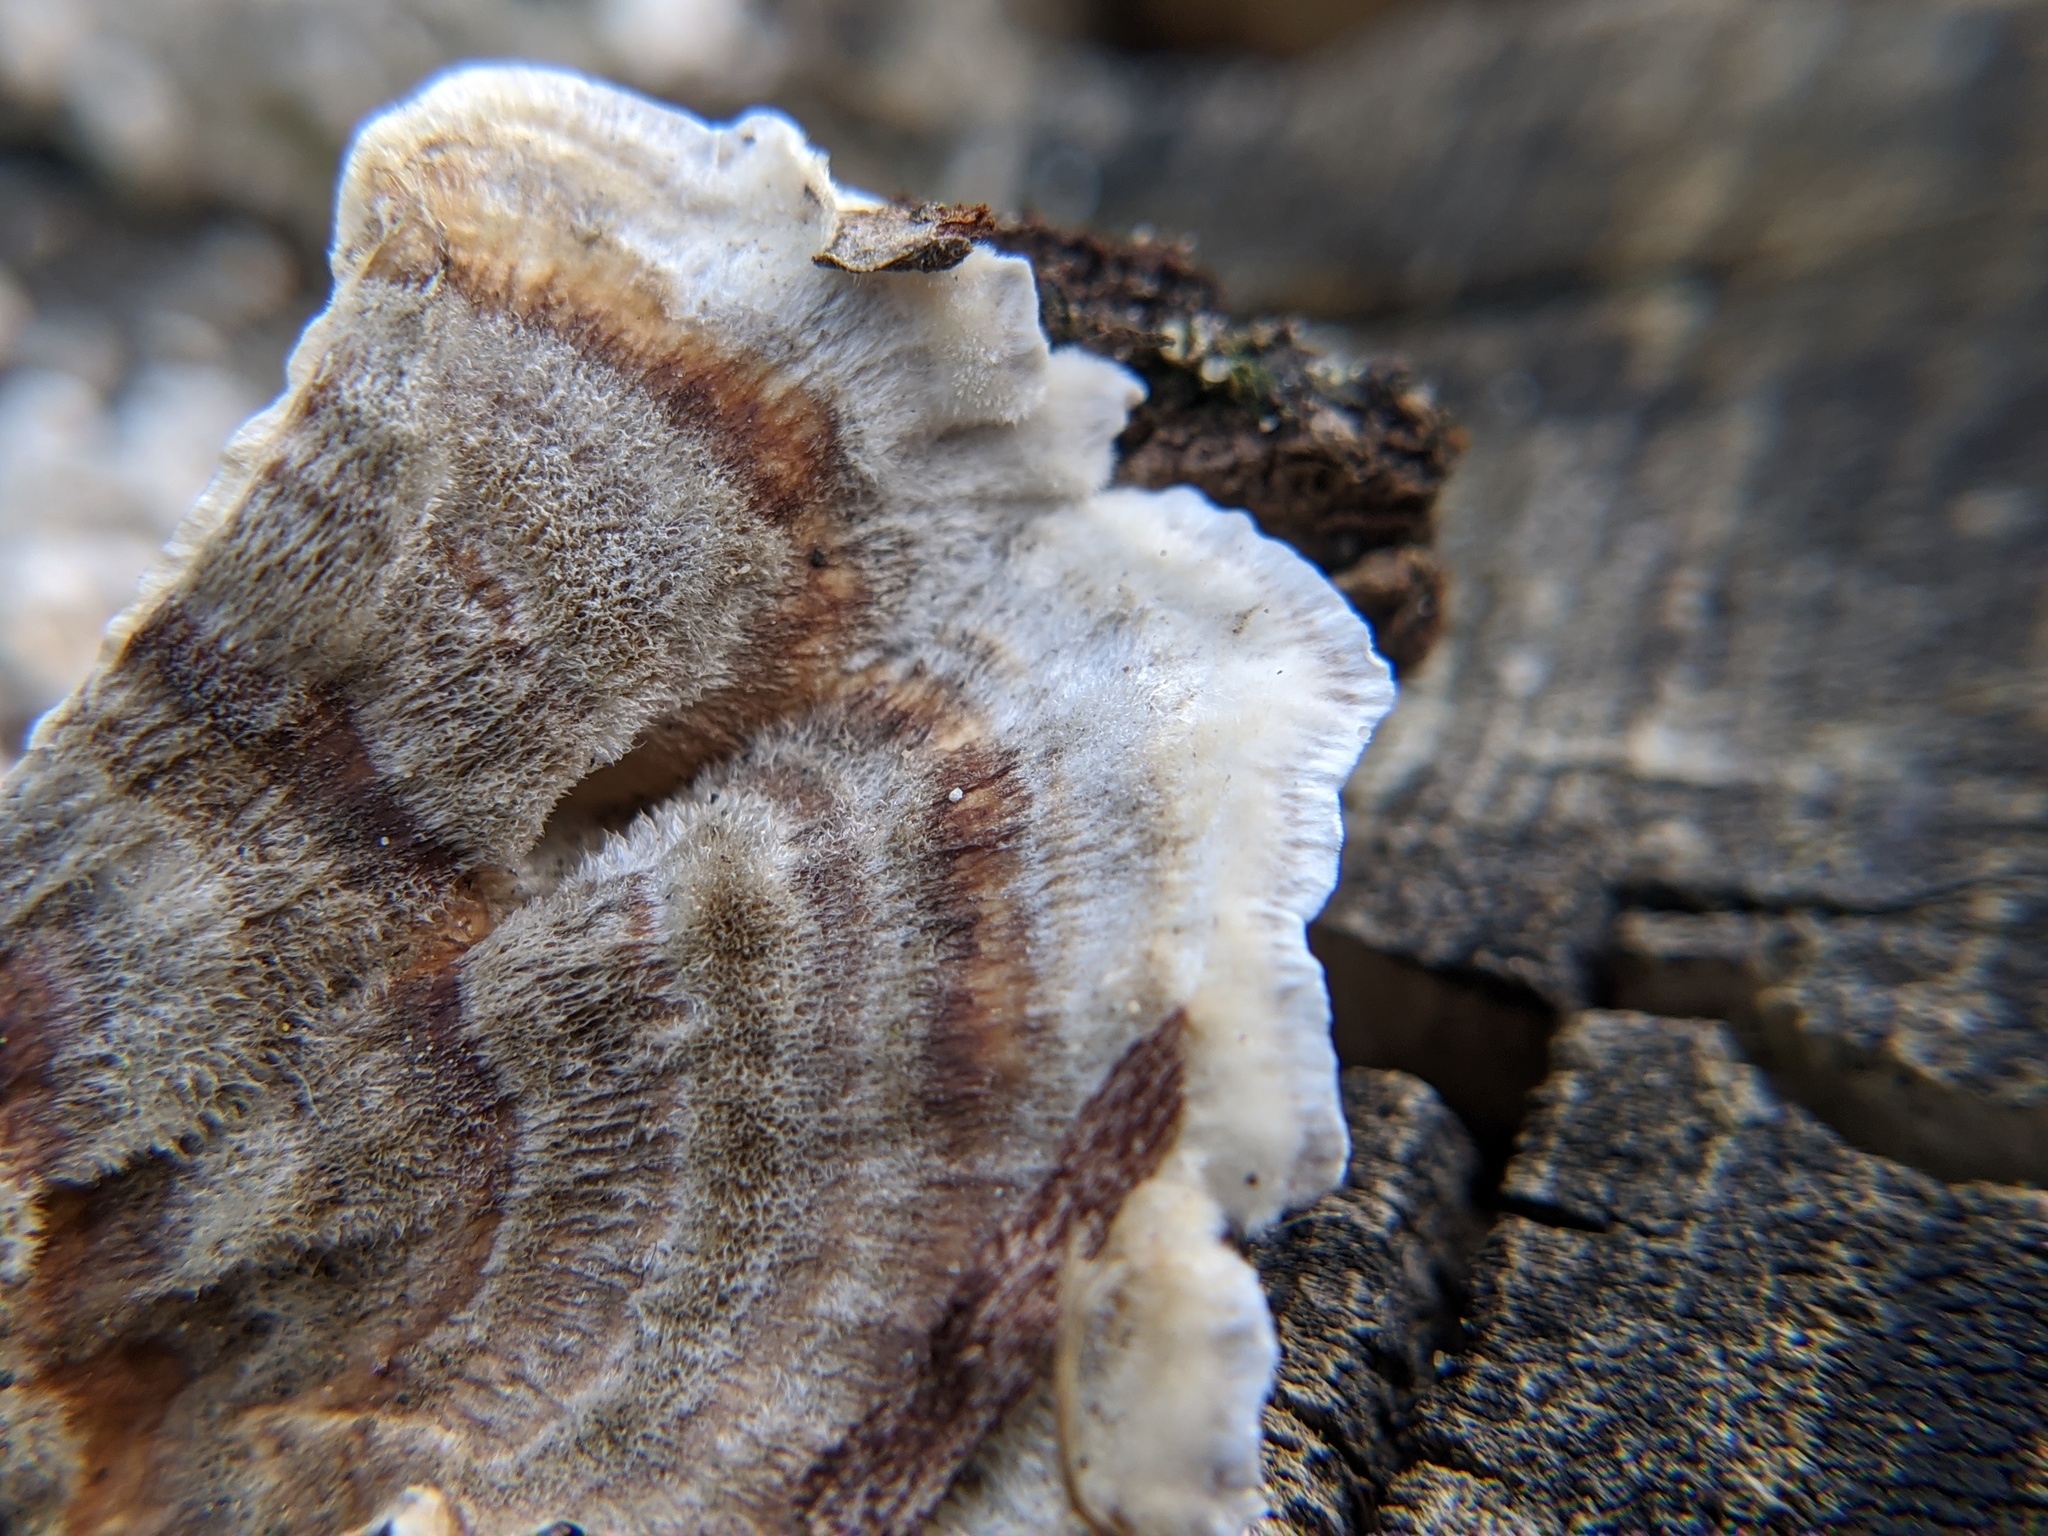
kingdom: Fungi
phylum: Basidiomycota
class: Agaricomycetes
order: Polyporales
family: Polyporaceae
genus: Trametes
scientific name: Trametes versicolor
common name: Turkeytail
